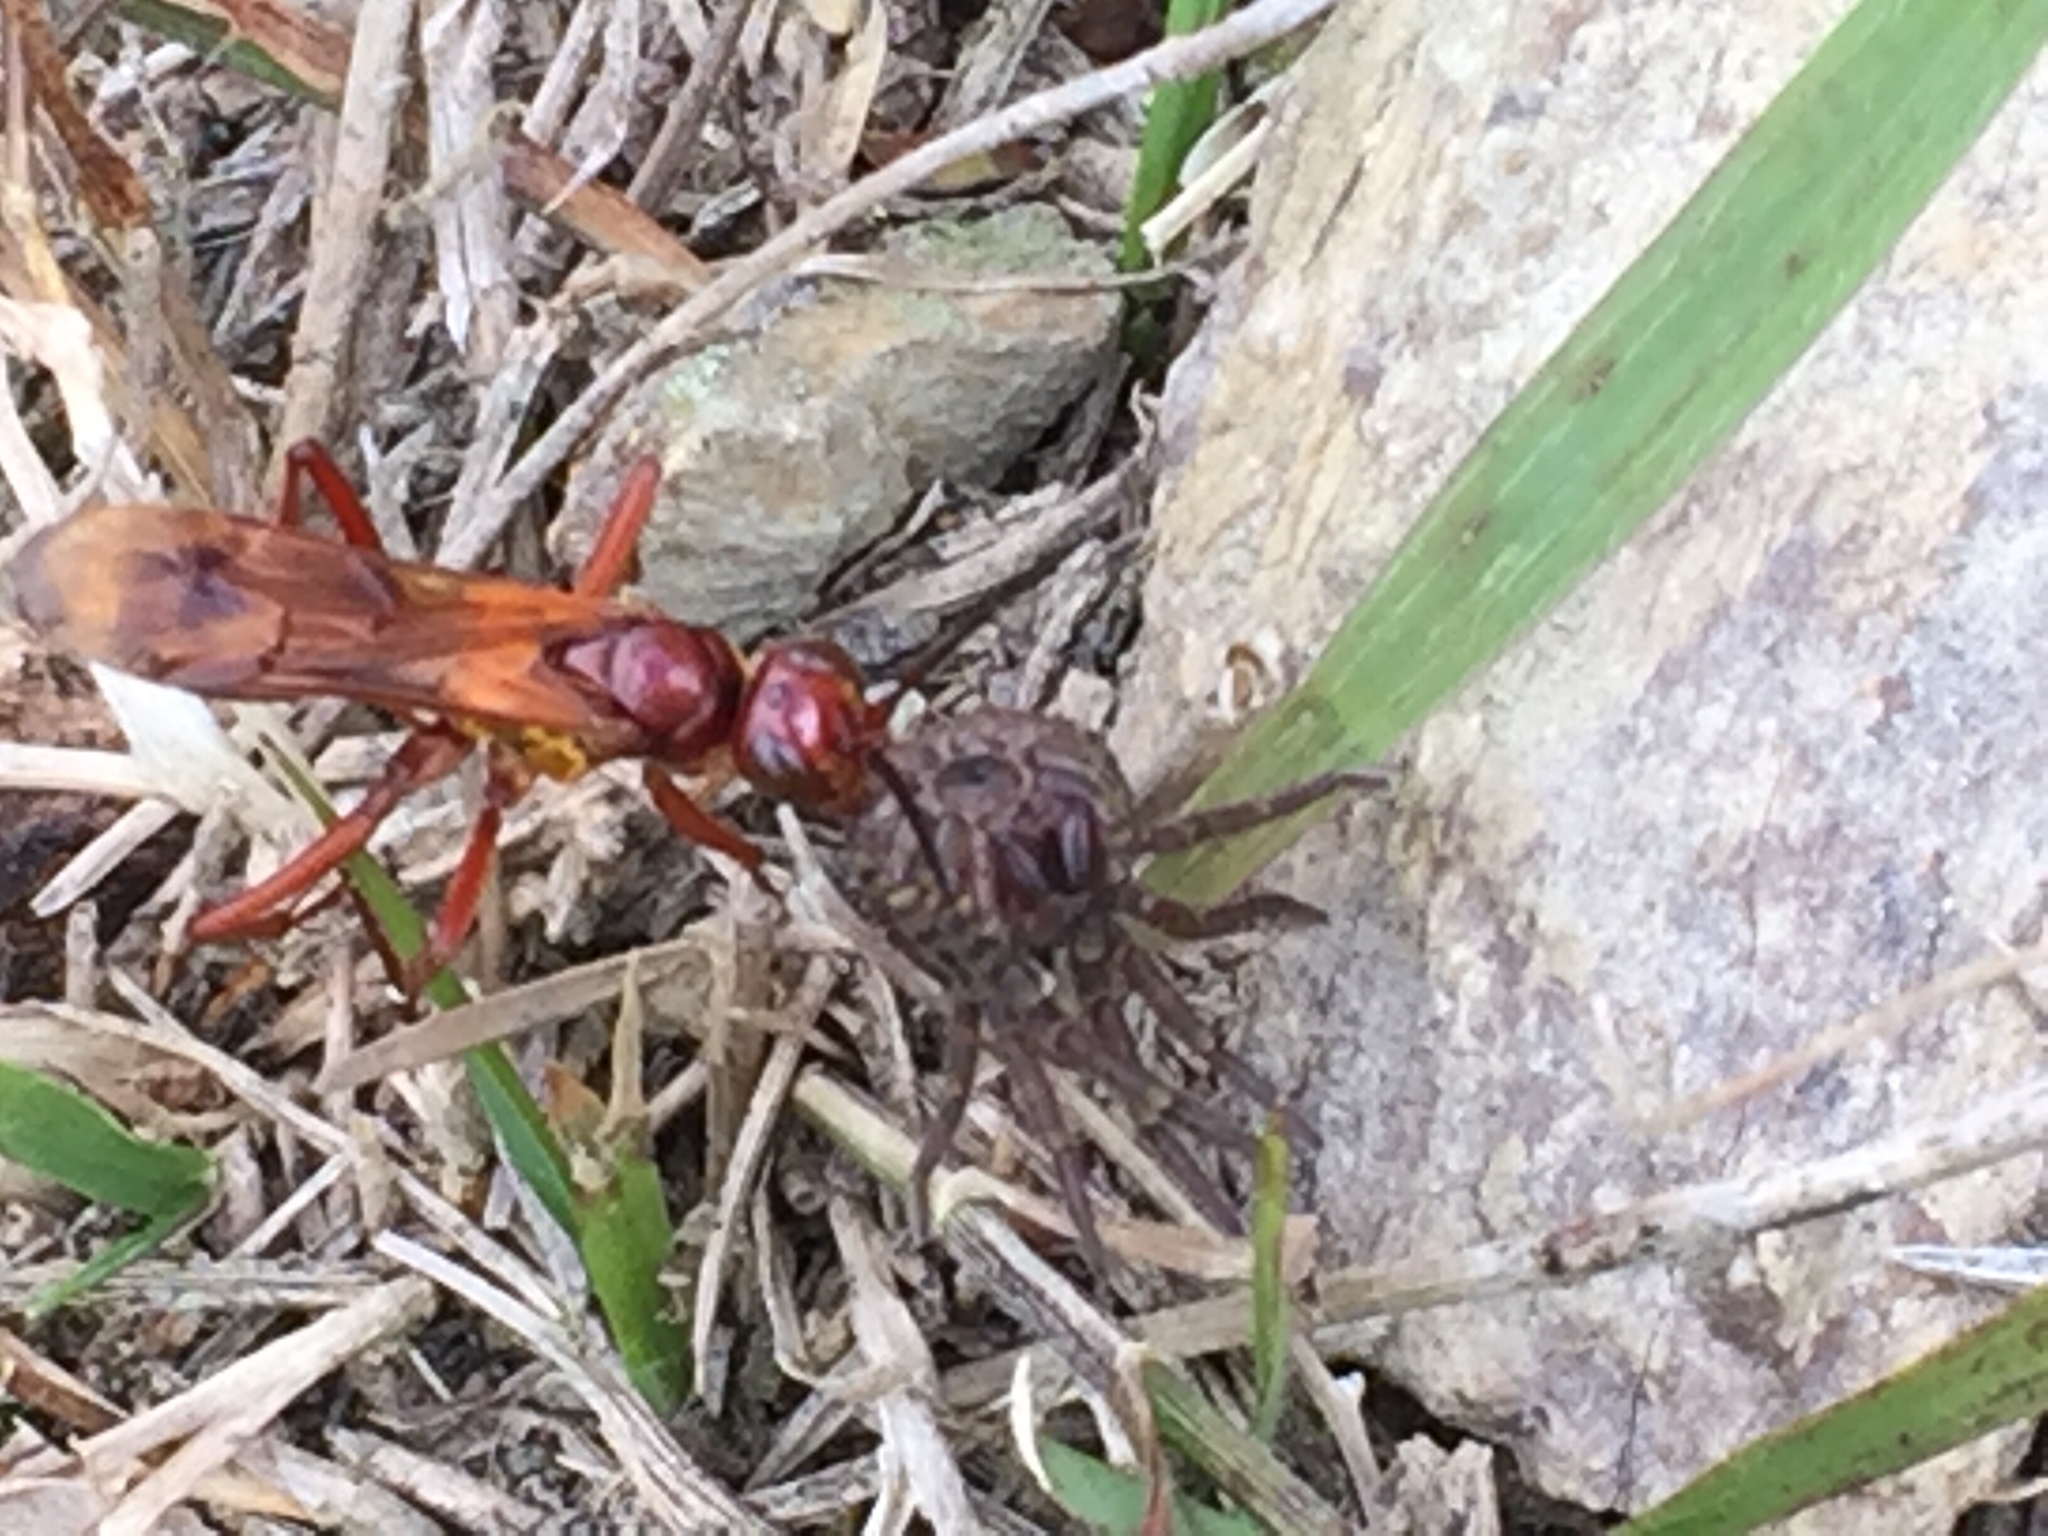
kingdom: Animalia
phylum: Arthropoda
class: Insecta
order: Hymenoptera
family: Pompilidae
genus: Sphictostethus
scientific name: Sphictostethus nitidus
